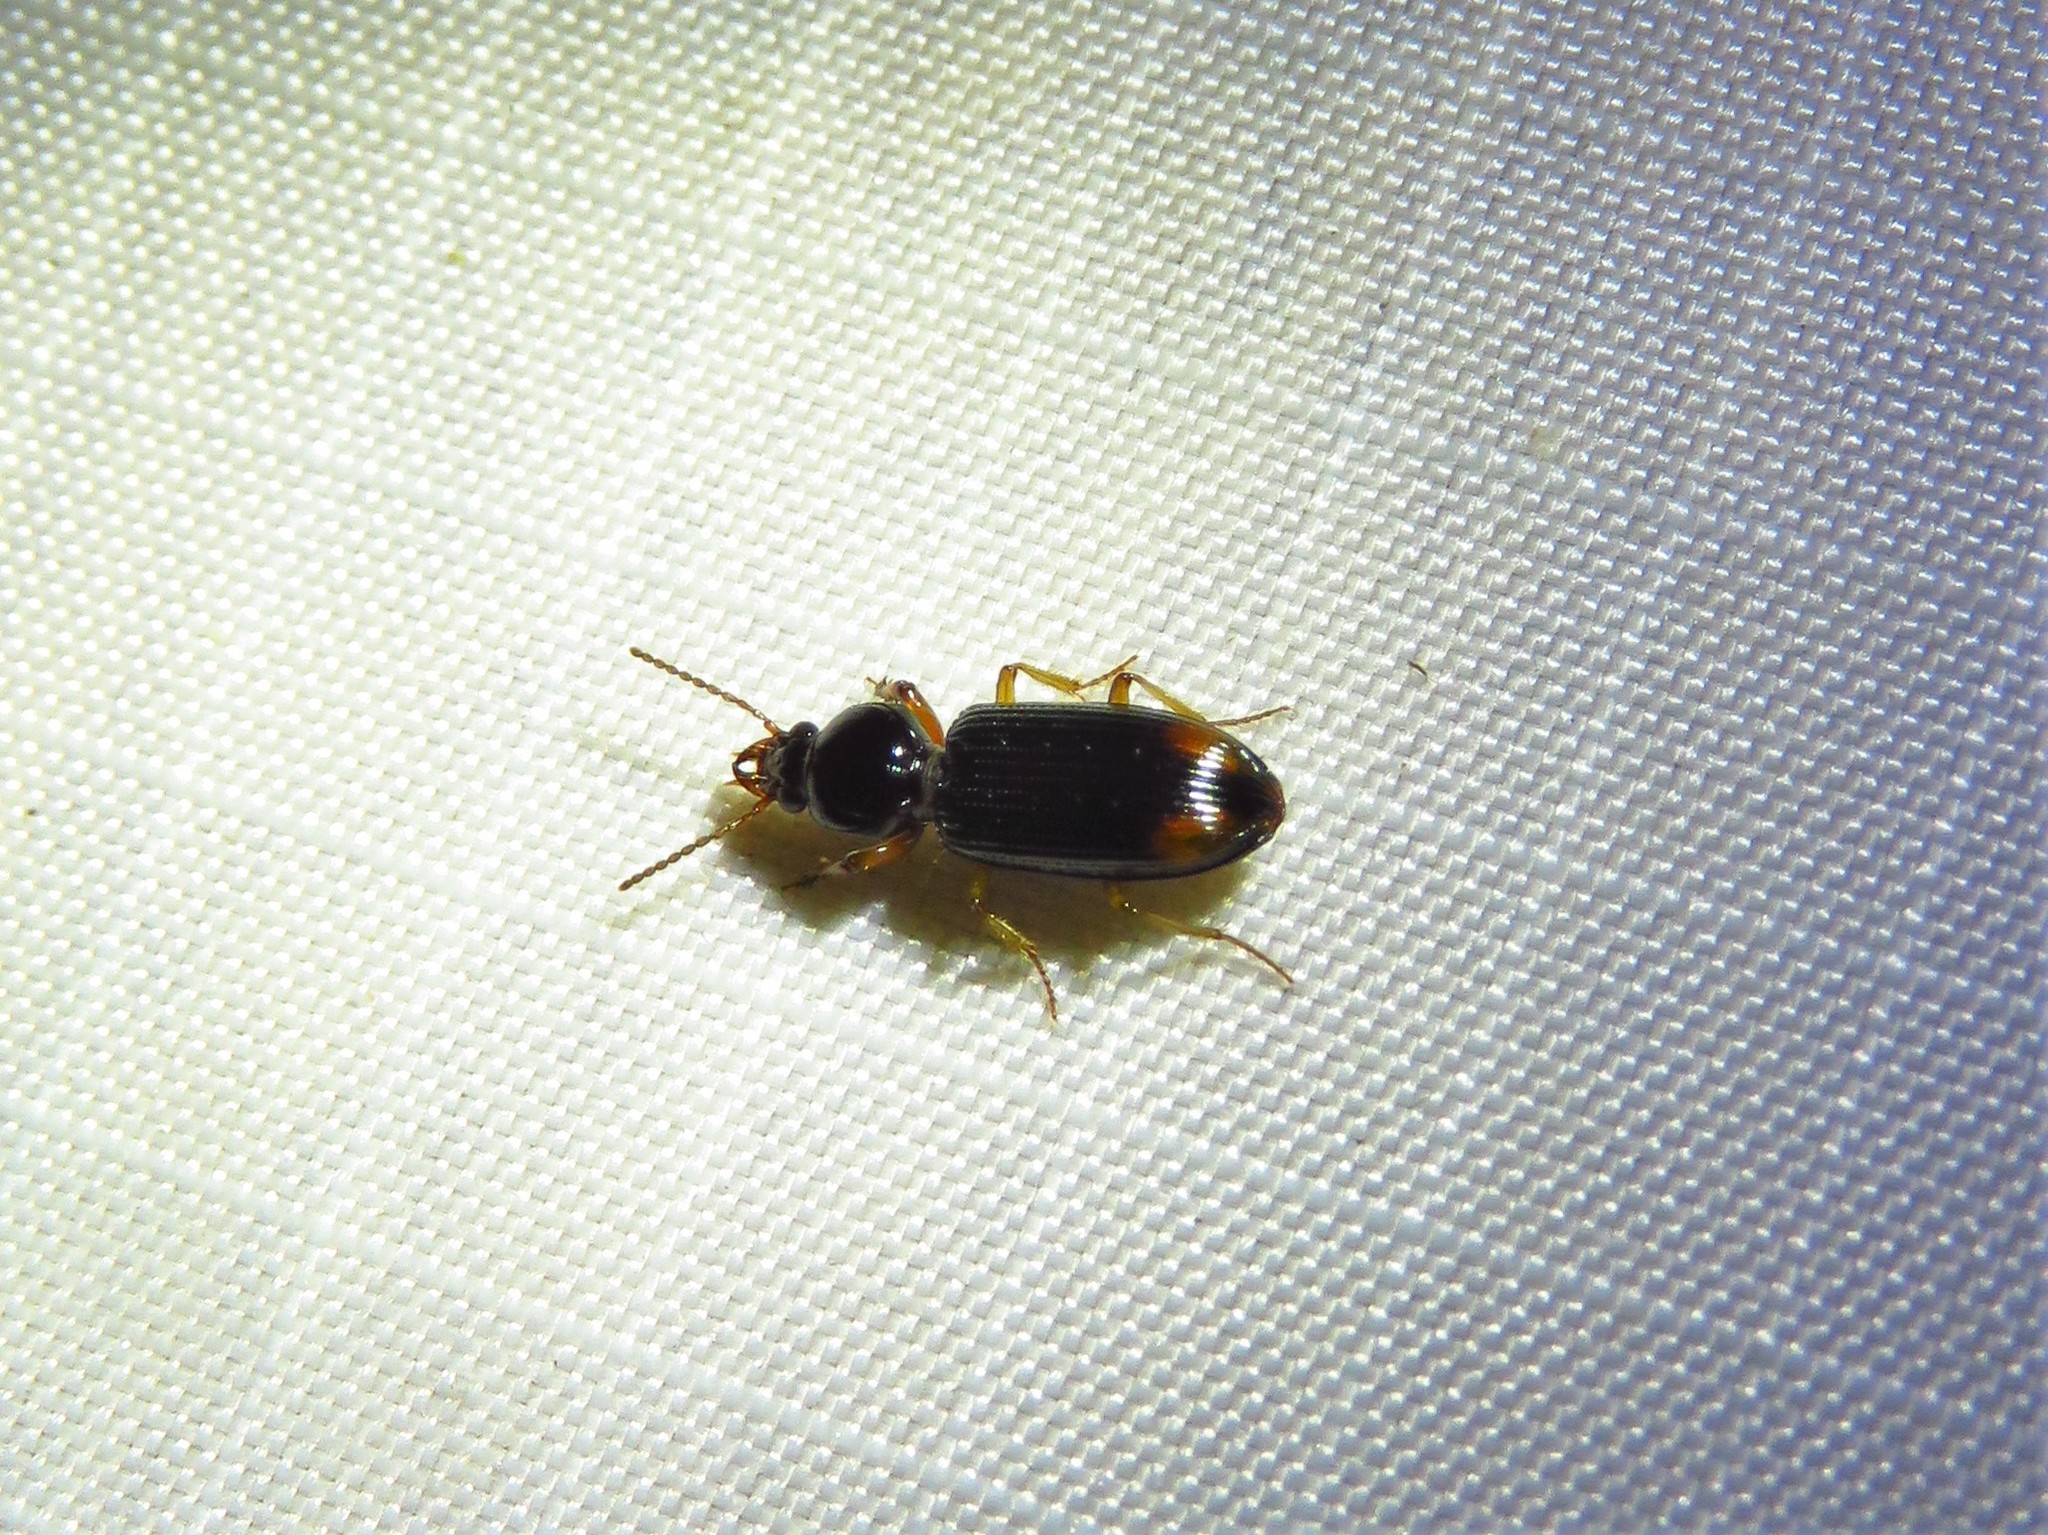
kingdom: Animalia
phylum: Arthropoda
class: Insecta
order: Coleoptera
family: Carabidae
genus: Aspidoglossa
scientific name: Aspidoglossa subangulata
